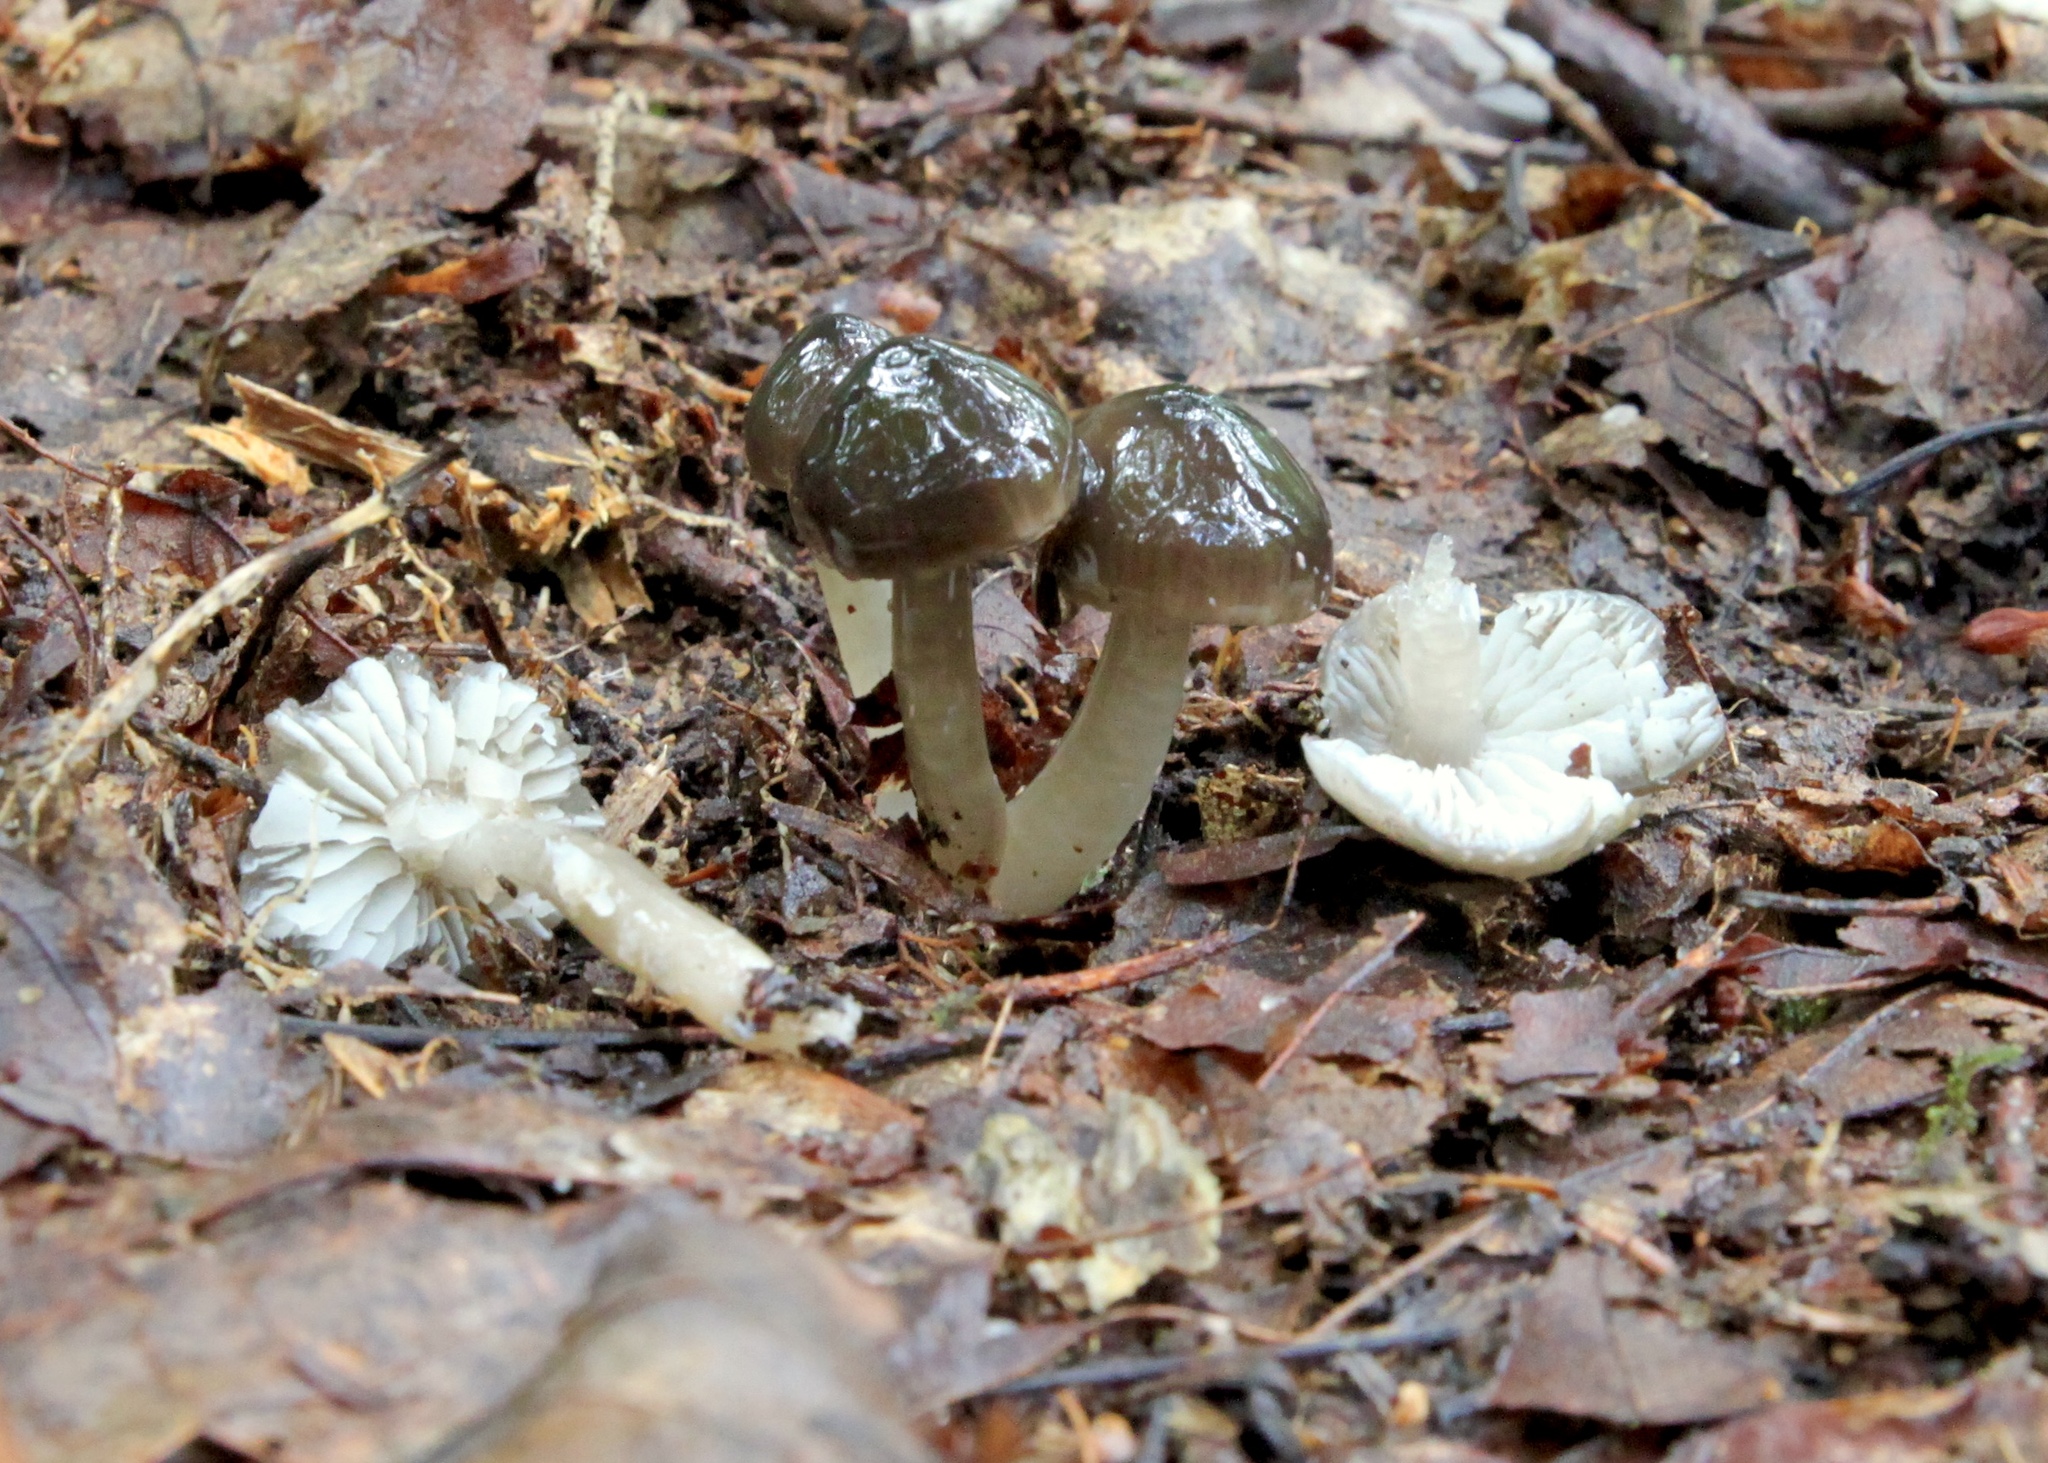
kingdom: Fungi
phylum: Basidiomycota
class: Agaricomycetes
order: Agaricales
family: Hygrophoraceae
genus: Gliophorus
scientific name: Gliophorus irrigatus
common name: Slimy waxcap
